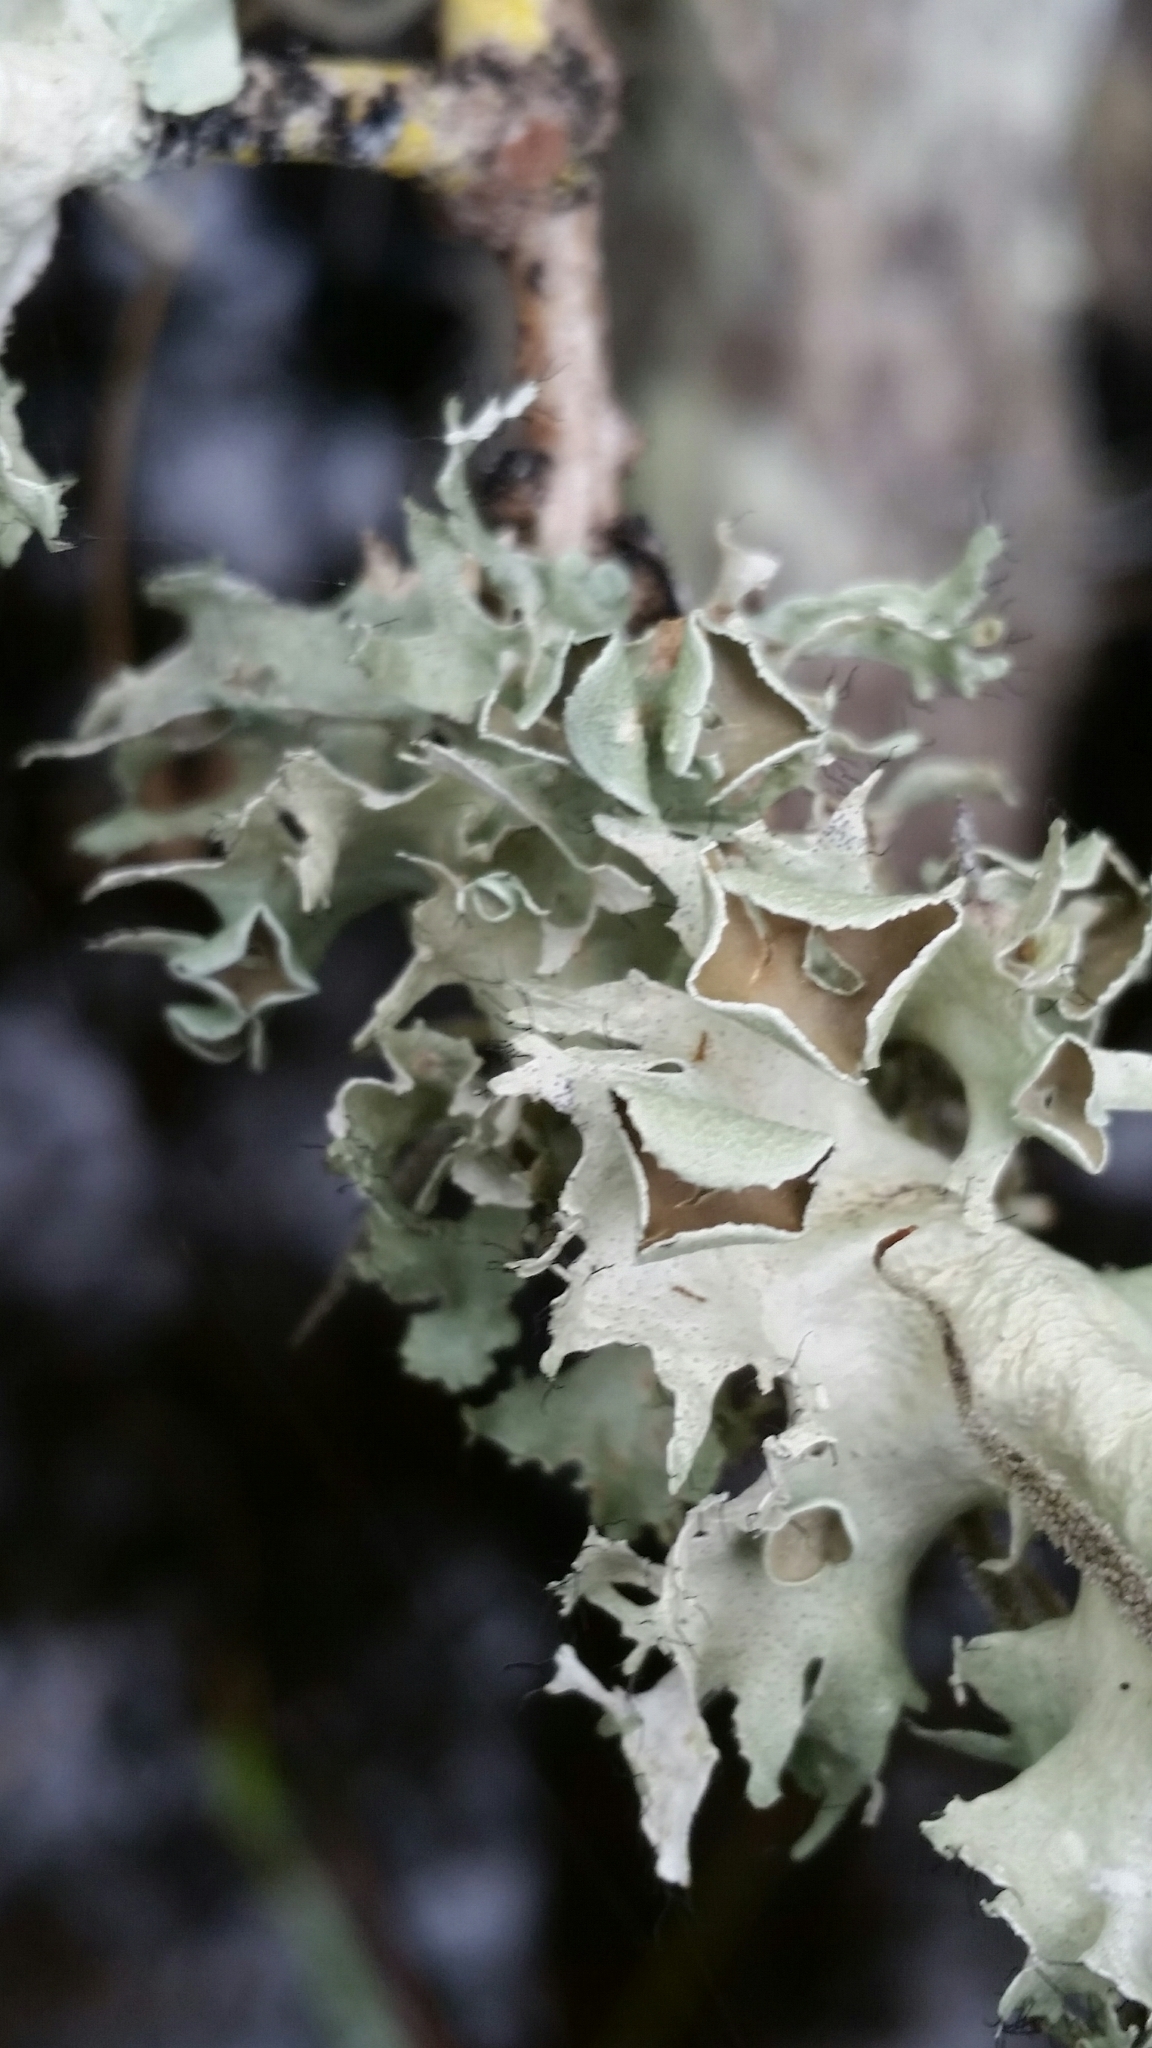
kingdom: Fungi
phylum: Ascomycota
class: Lecanoromycetes
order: Lecanorales
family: Parmeliaceae
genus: Parmotrema
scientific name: Parmotrema perforatum
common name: Perforated ruffle lichen
